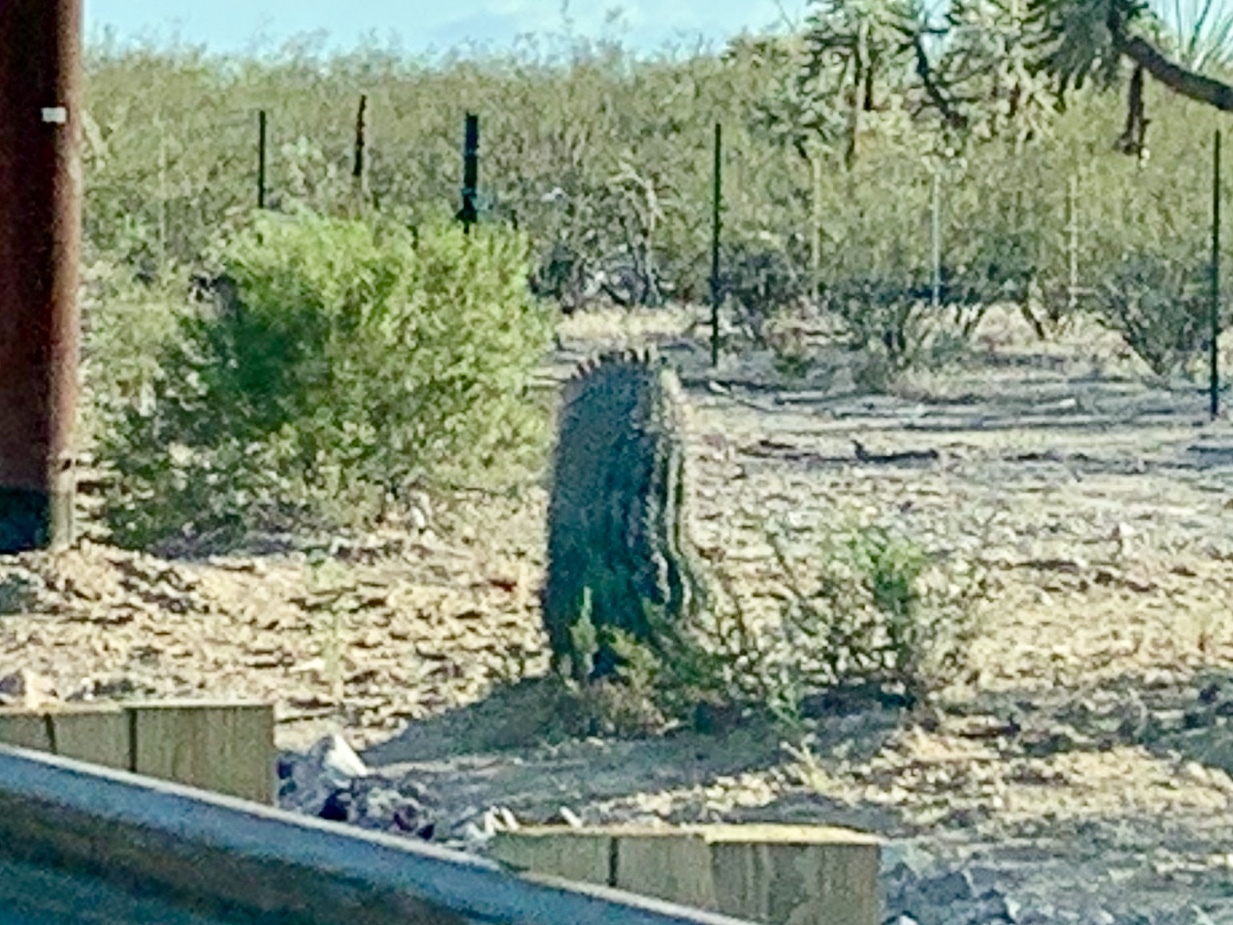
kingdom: Plantae
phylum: Tracheophyta
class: Magnoliopsida
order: Caryophyllales
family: Cactaceae
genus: Ferocactus
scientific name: Ferocactus wislizeni
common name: Candy barrel cactus
